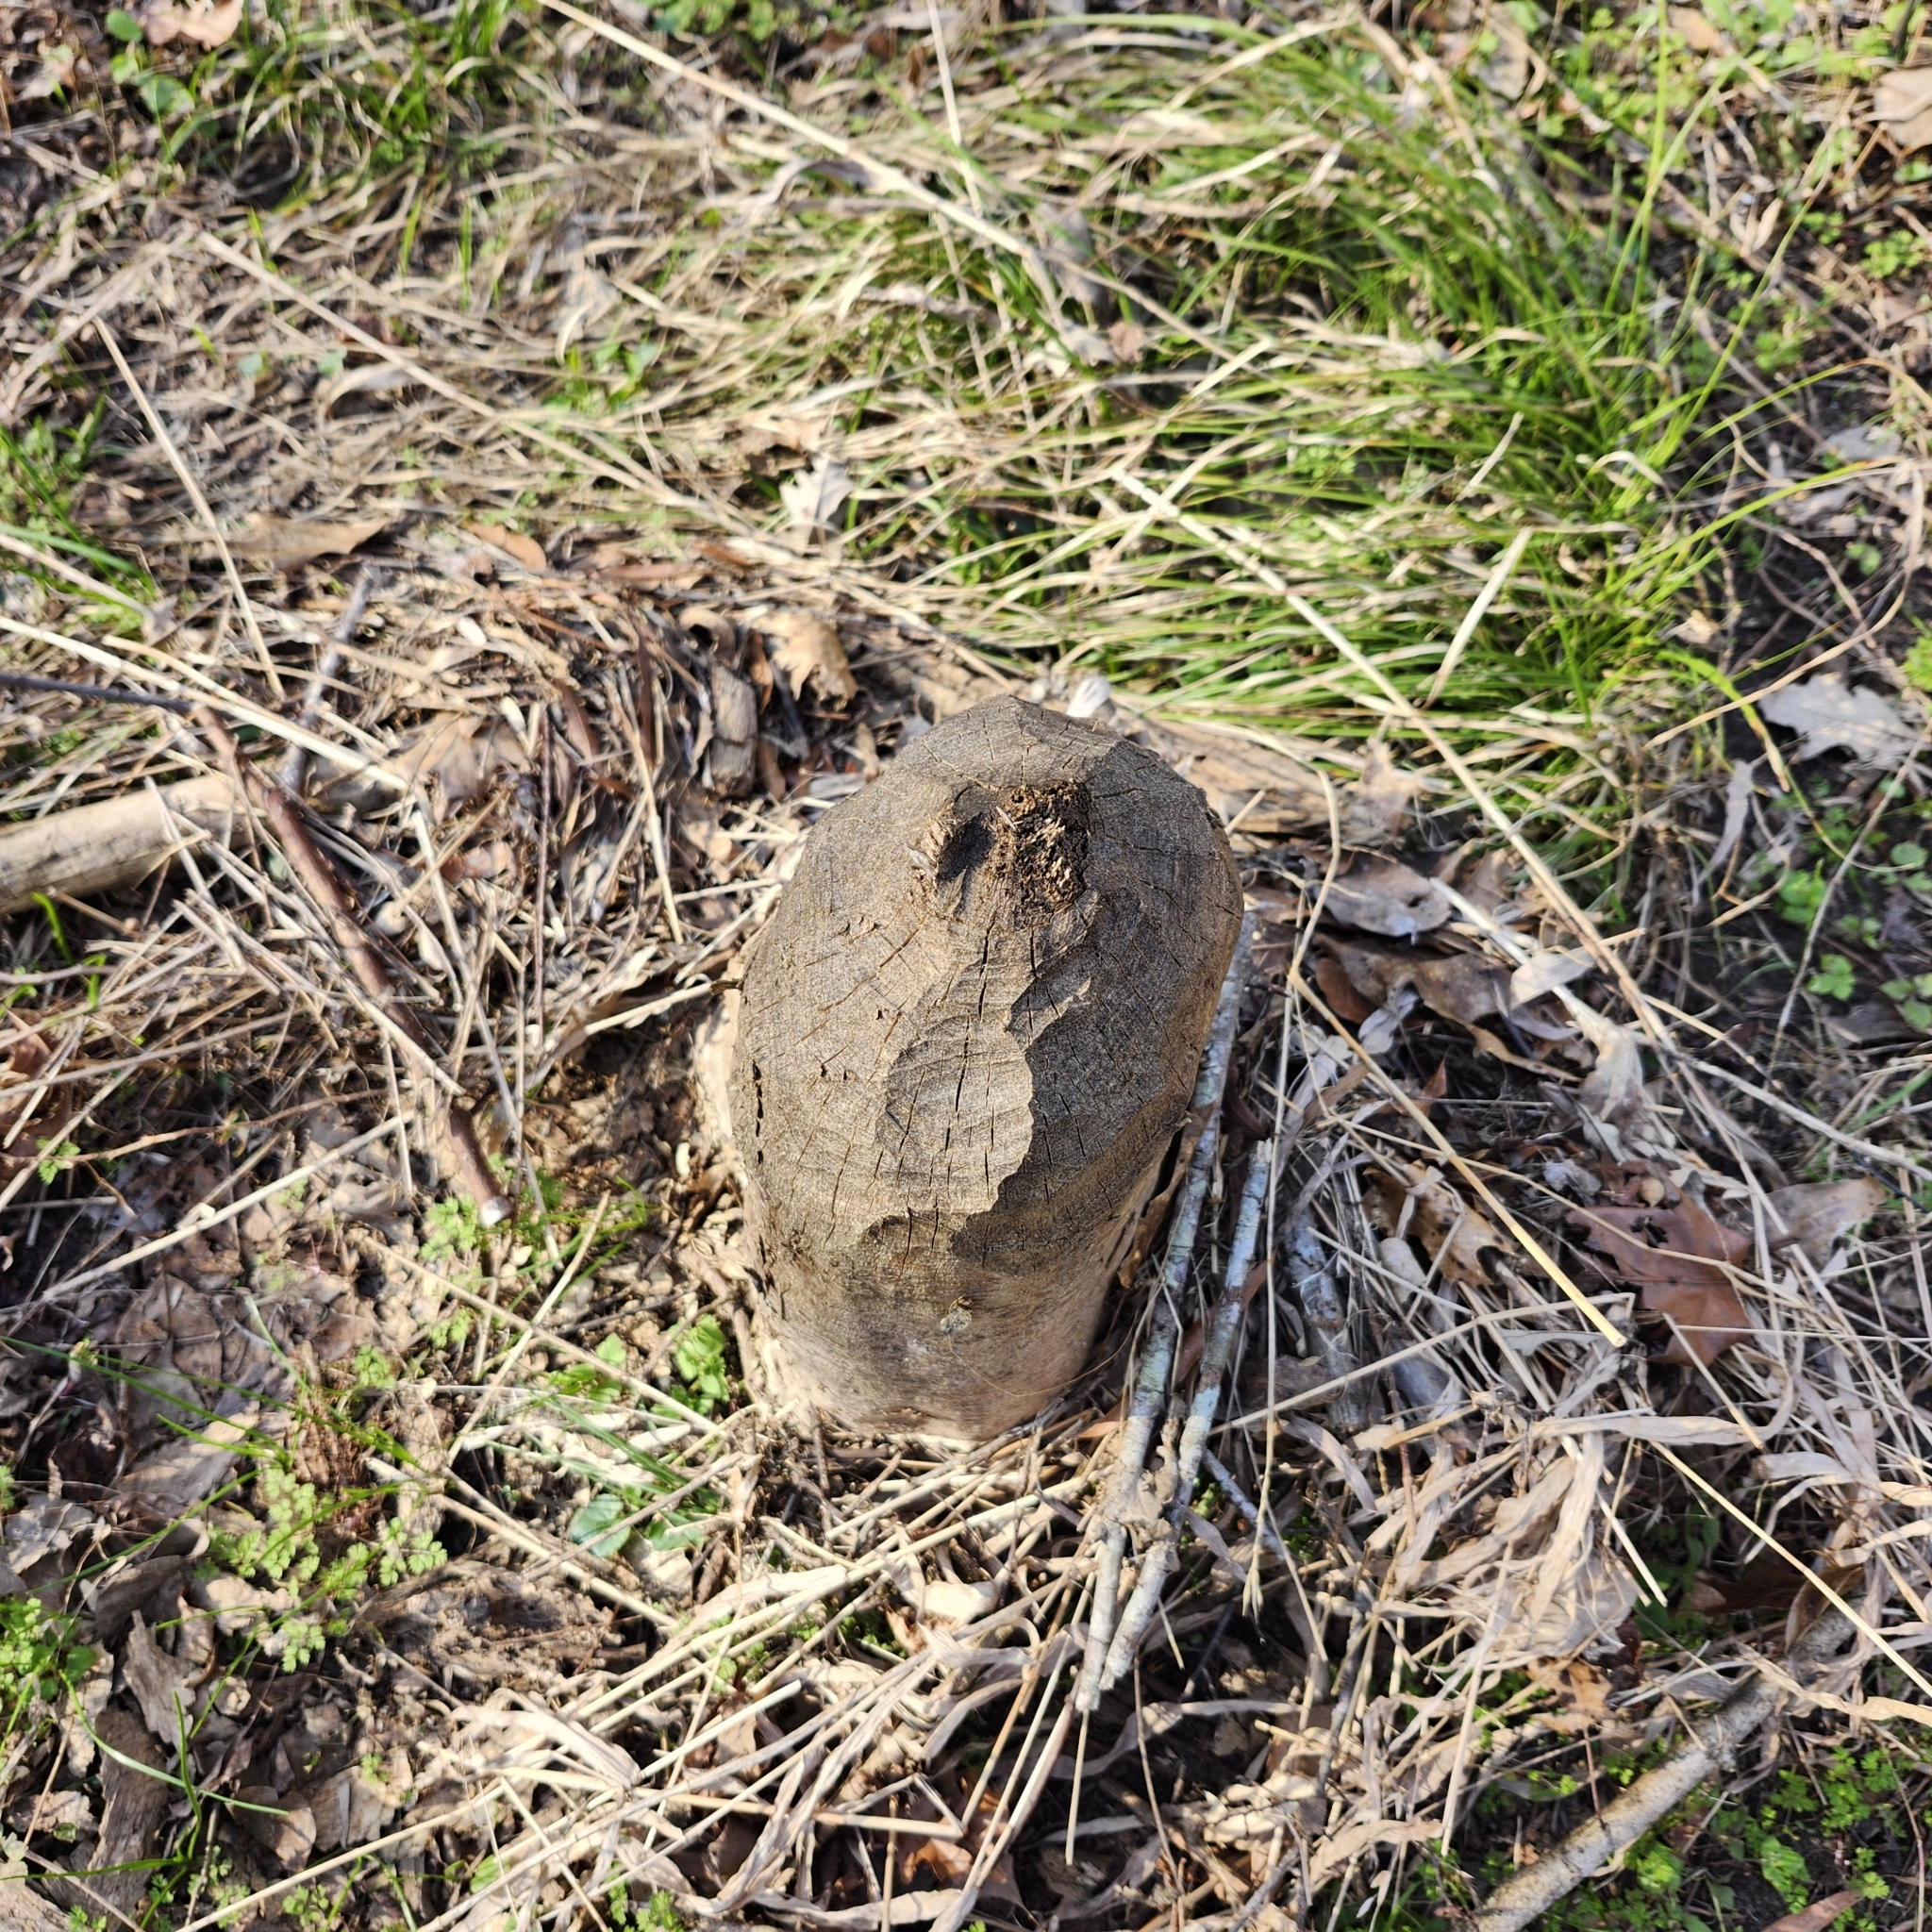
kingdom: Animalia
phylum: Chordata
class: Mammalia
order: Rodentia
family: Castoridae
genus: Castor
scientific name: Castor canadensis
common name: American beaver
